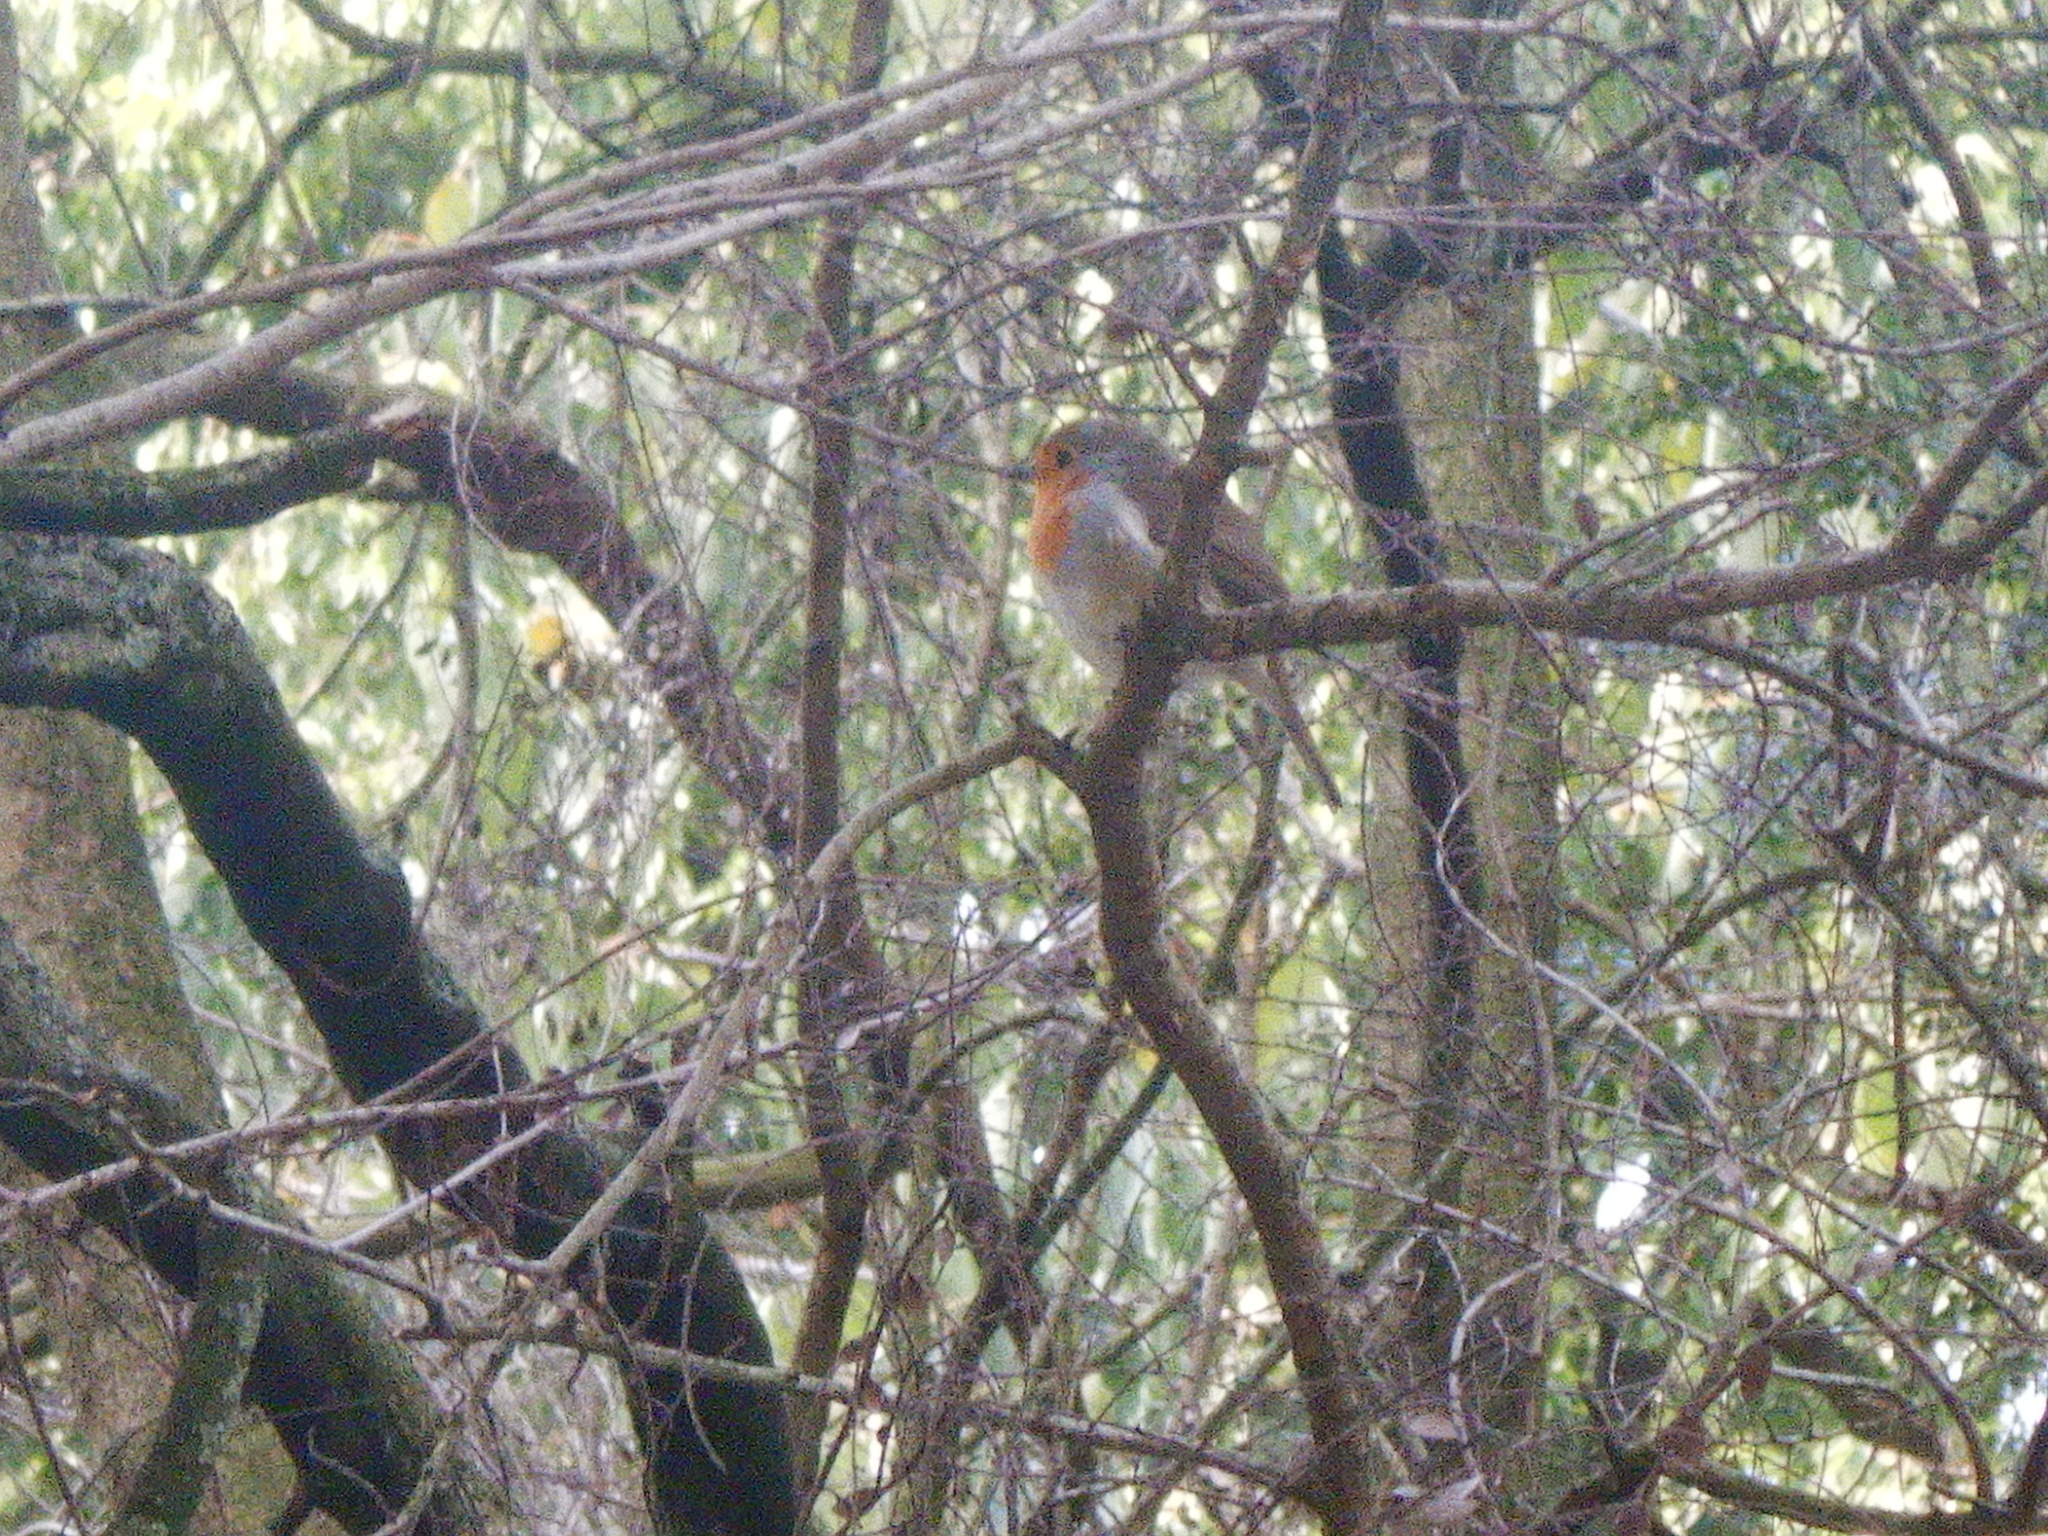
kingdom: Animalia
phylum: Chordata
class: Aves
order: Passeriformes
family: Muscicapidae
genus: Erithacus
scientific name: Erithacus rubecula
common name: European robin
